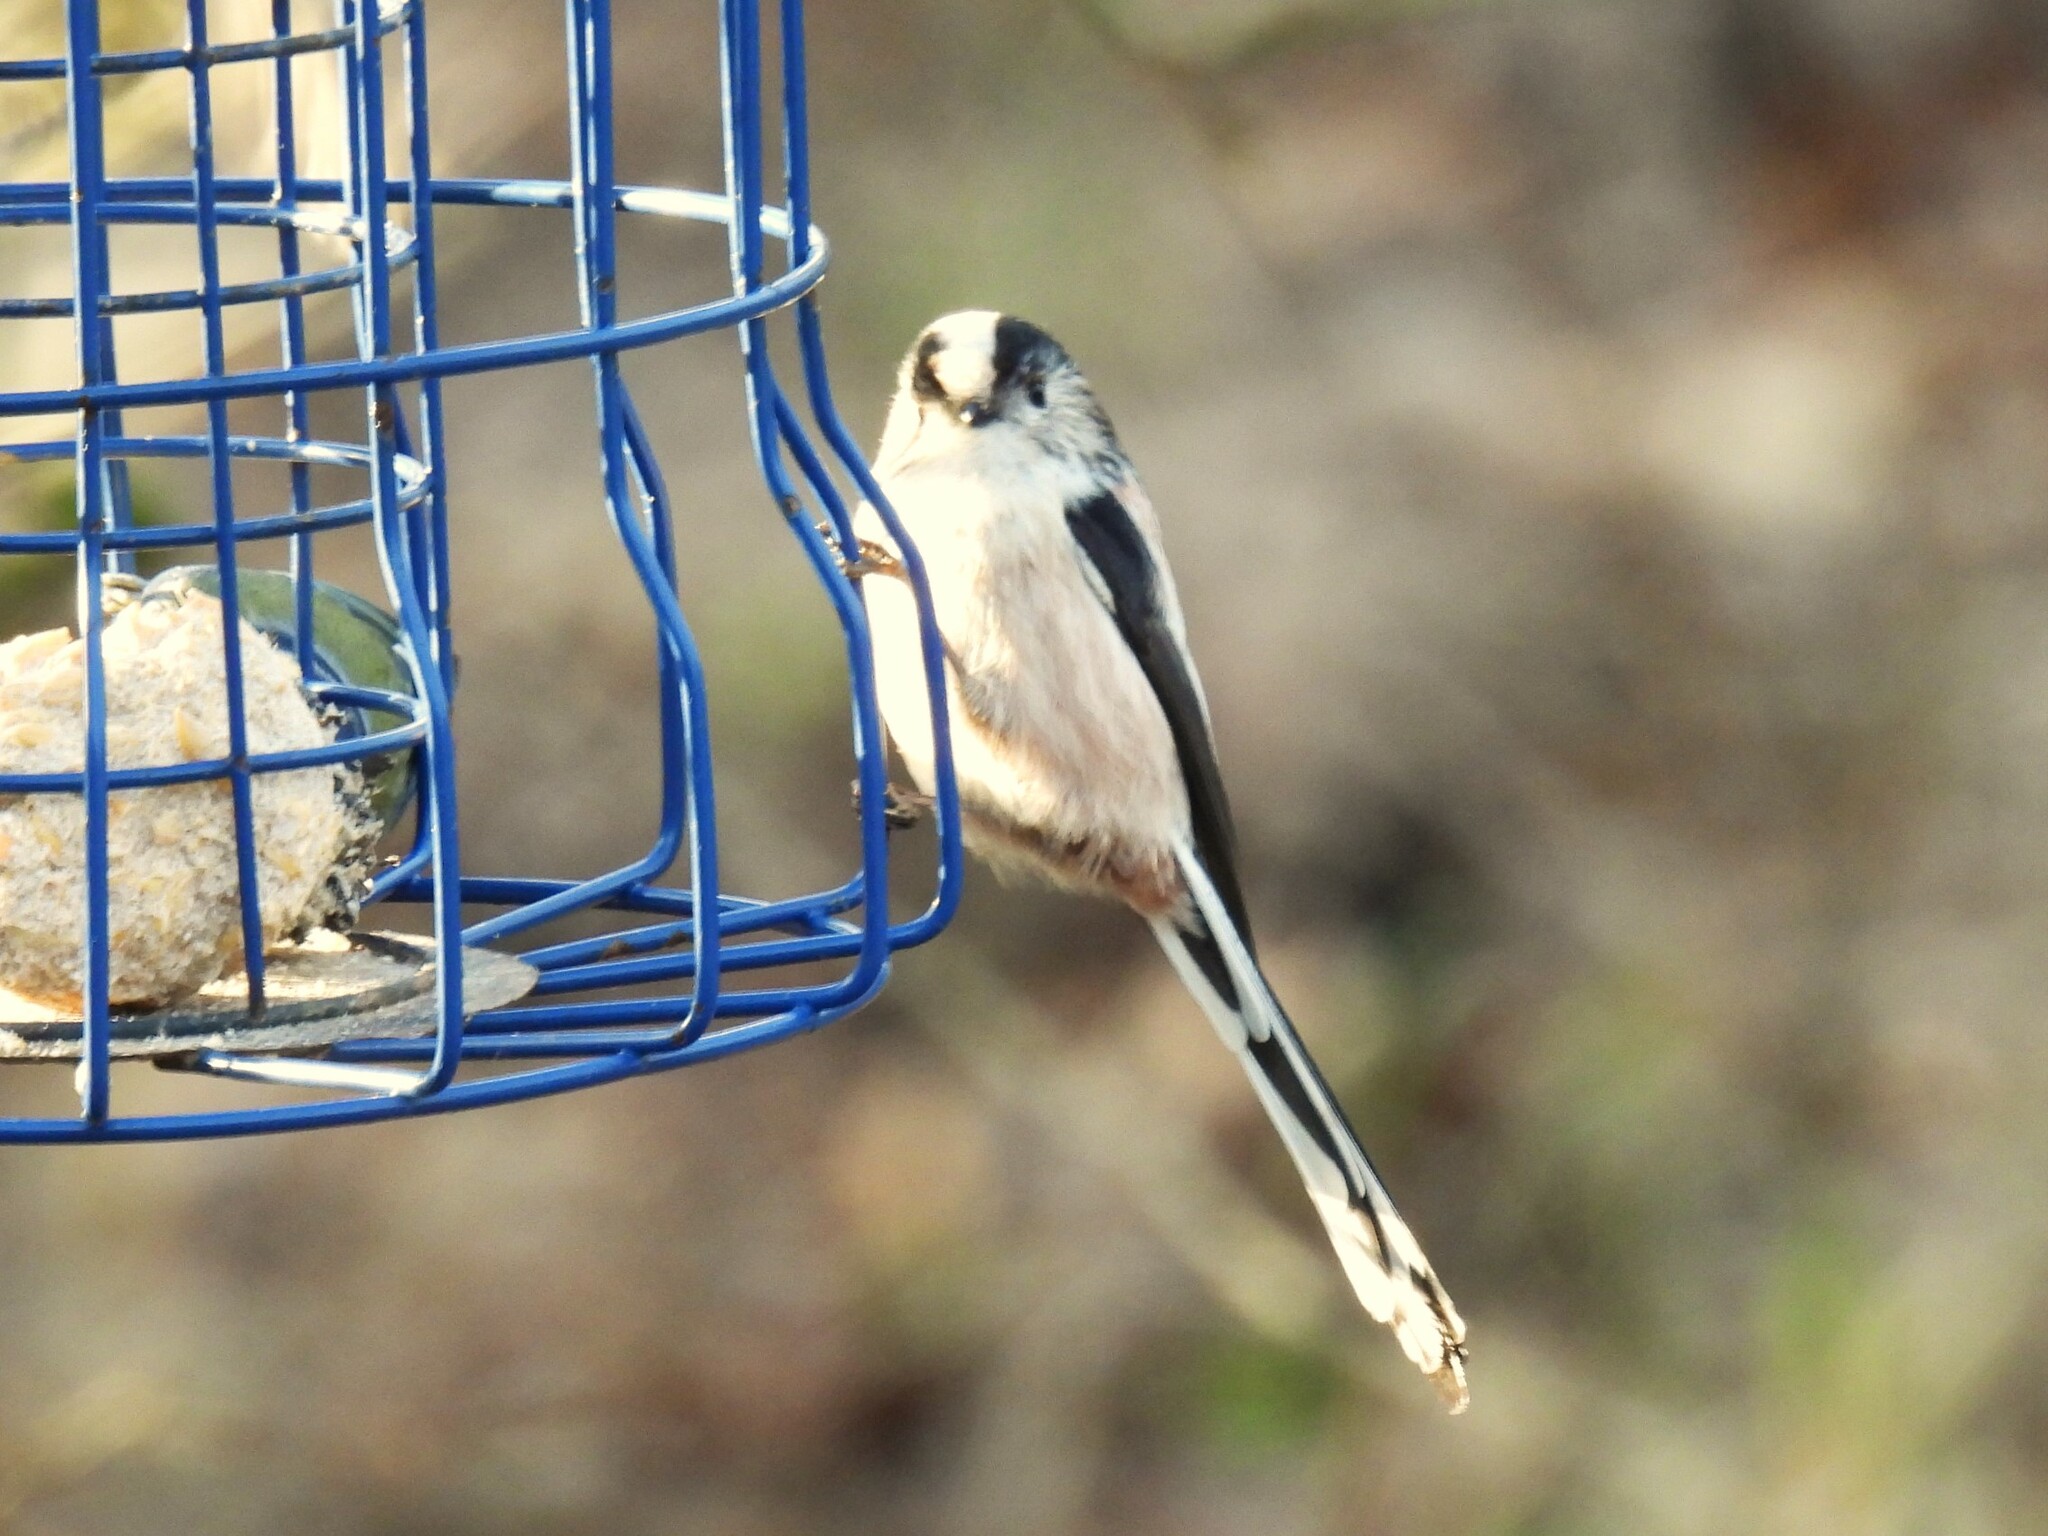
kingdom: Animalia
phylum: Chordata
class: Aves
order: Passeriformes
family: Aegithalidae
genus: Aegithalos
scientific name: Aegithalos caudatus
